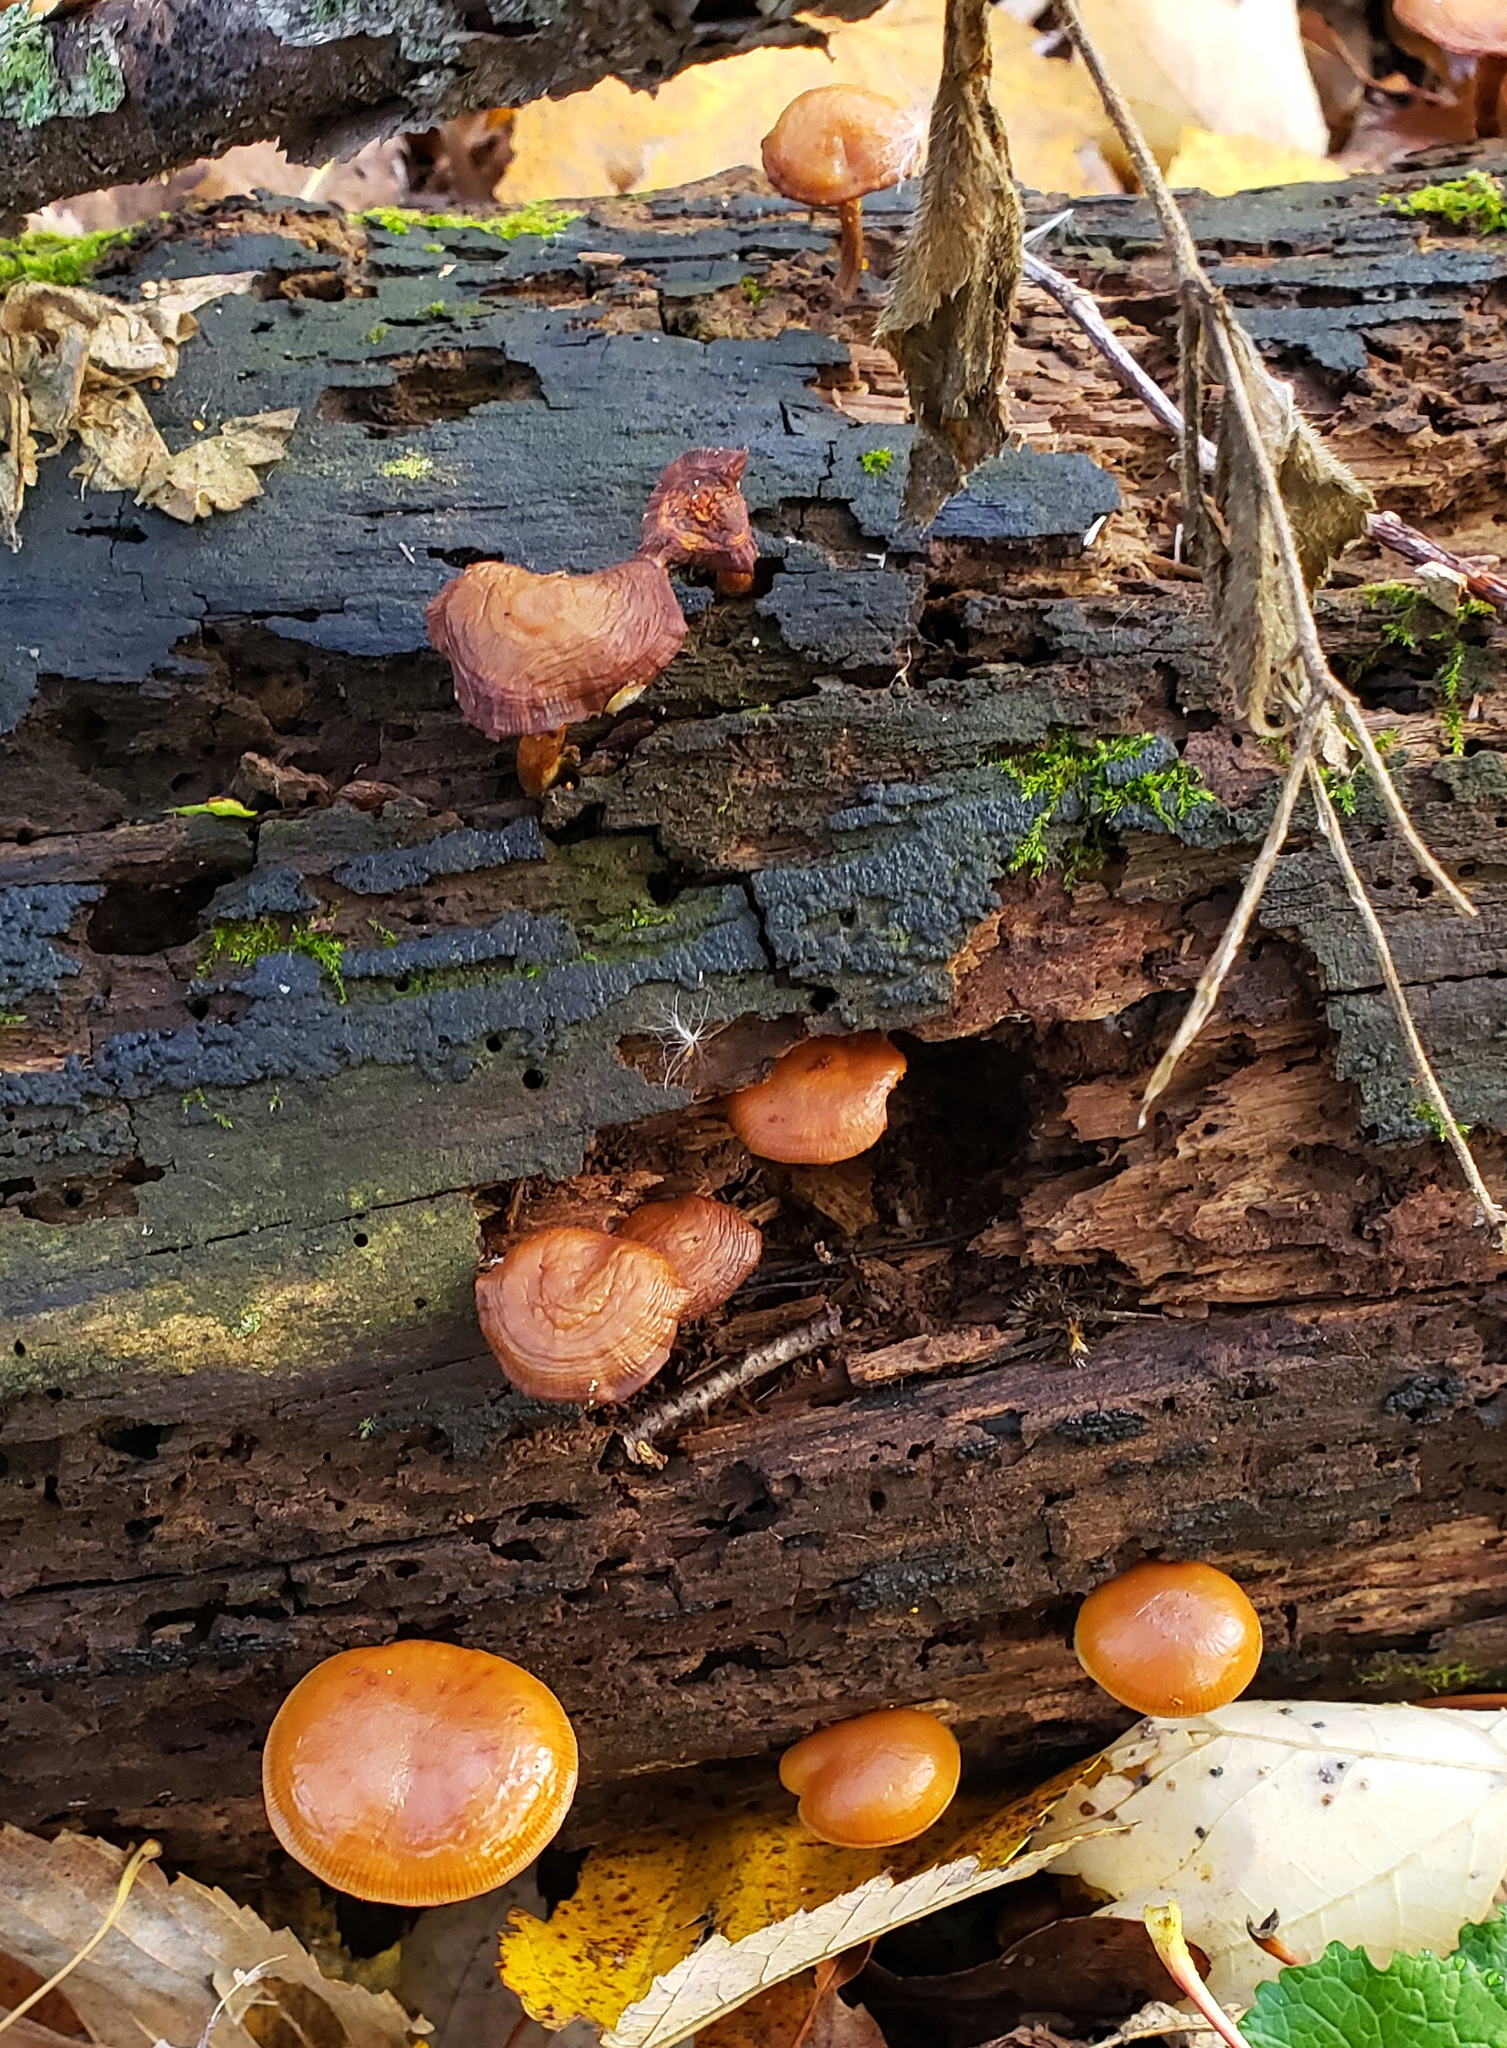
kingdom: Fungi
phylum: Basidiomycota
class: Agaricomycetes
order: Agaricales
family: Hymenogastraceae
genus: Galerina
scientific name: Galerina marginata
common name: Funeral bell
